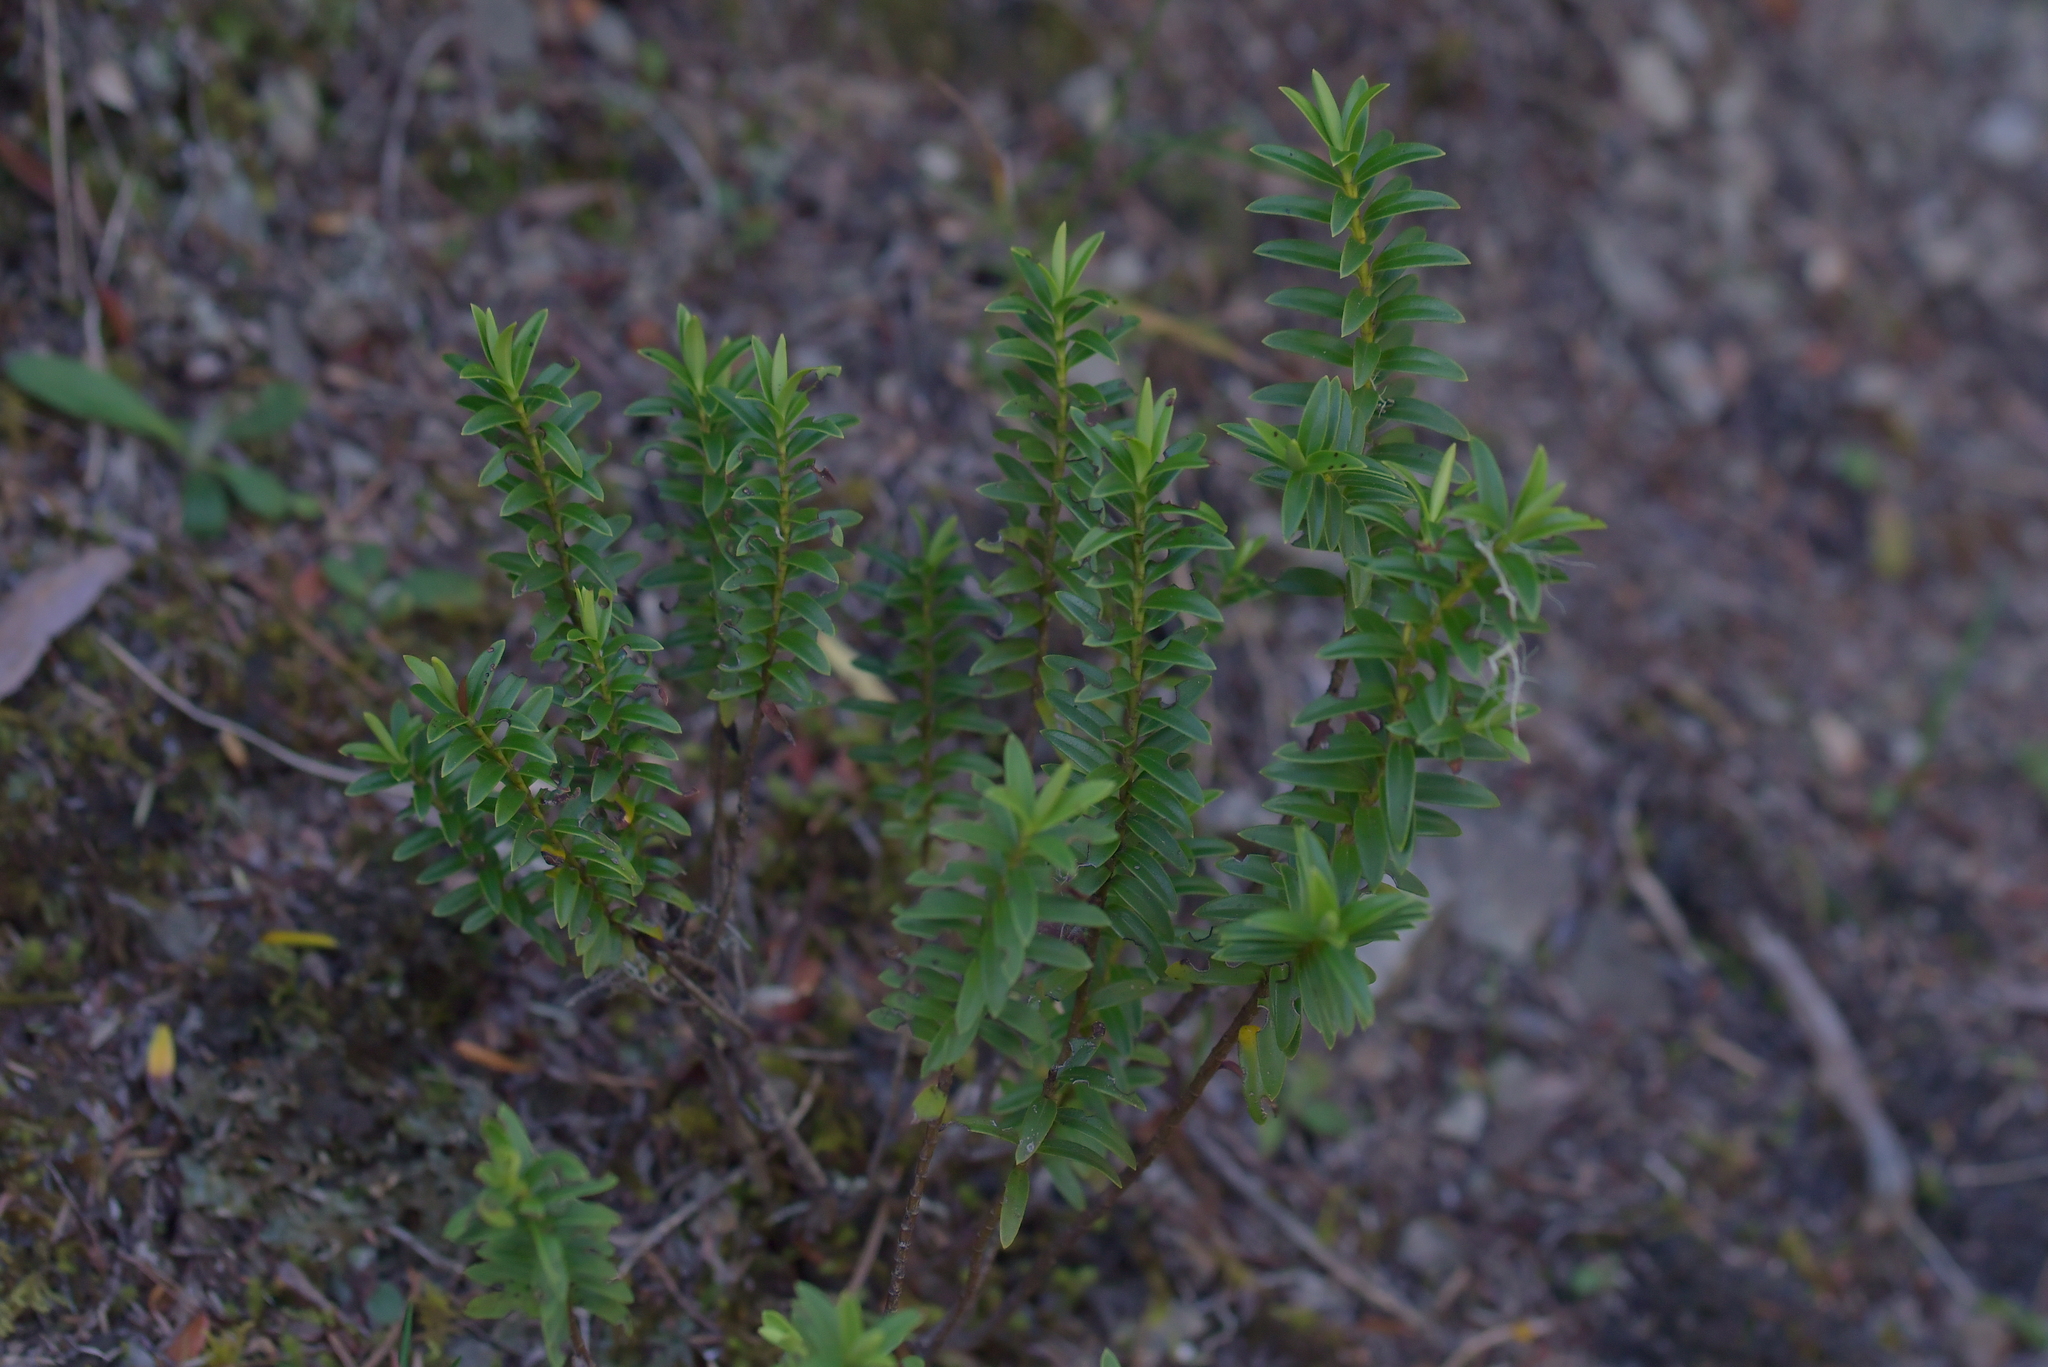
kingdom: Plantae
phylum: Tracheophyta
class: Magnoliopsida
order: Lamiales
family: Plantaginaceae
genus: Veronica
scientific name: Veronica odora
